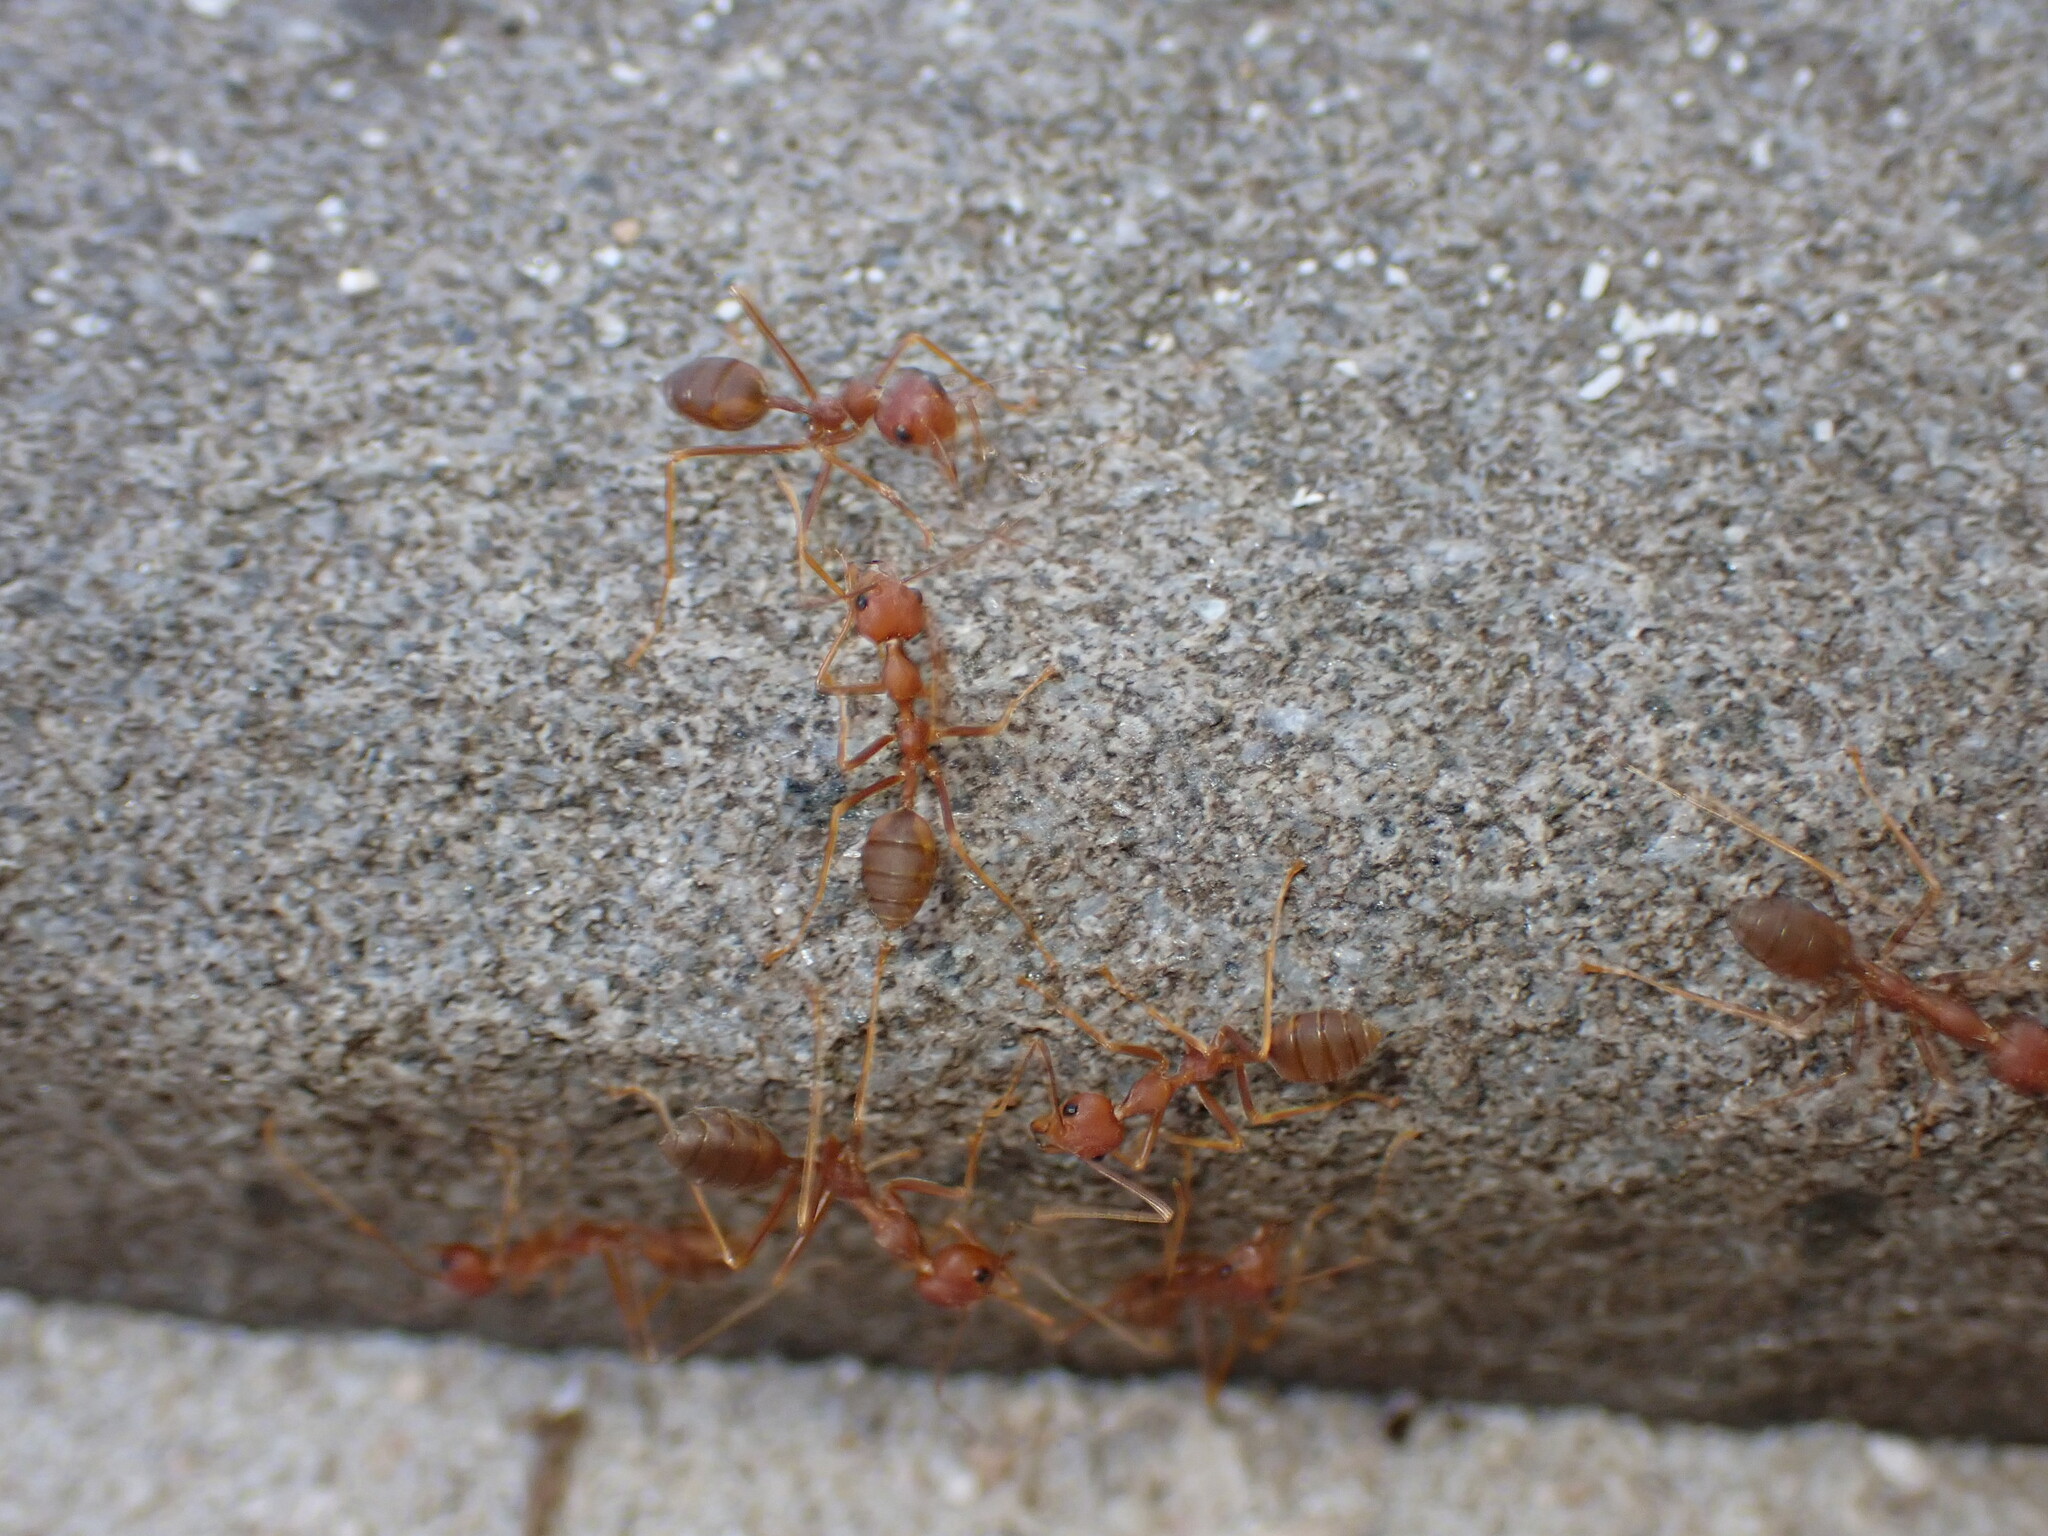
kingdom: Animalia
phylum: Arthropoda
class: Insecta
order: Hymenoptera
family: Formicidae
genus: Oecophylla
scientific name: Oecophylla smaragdina
